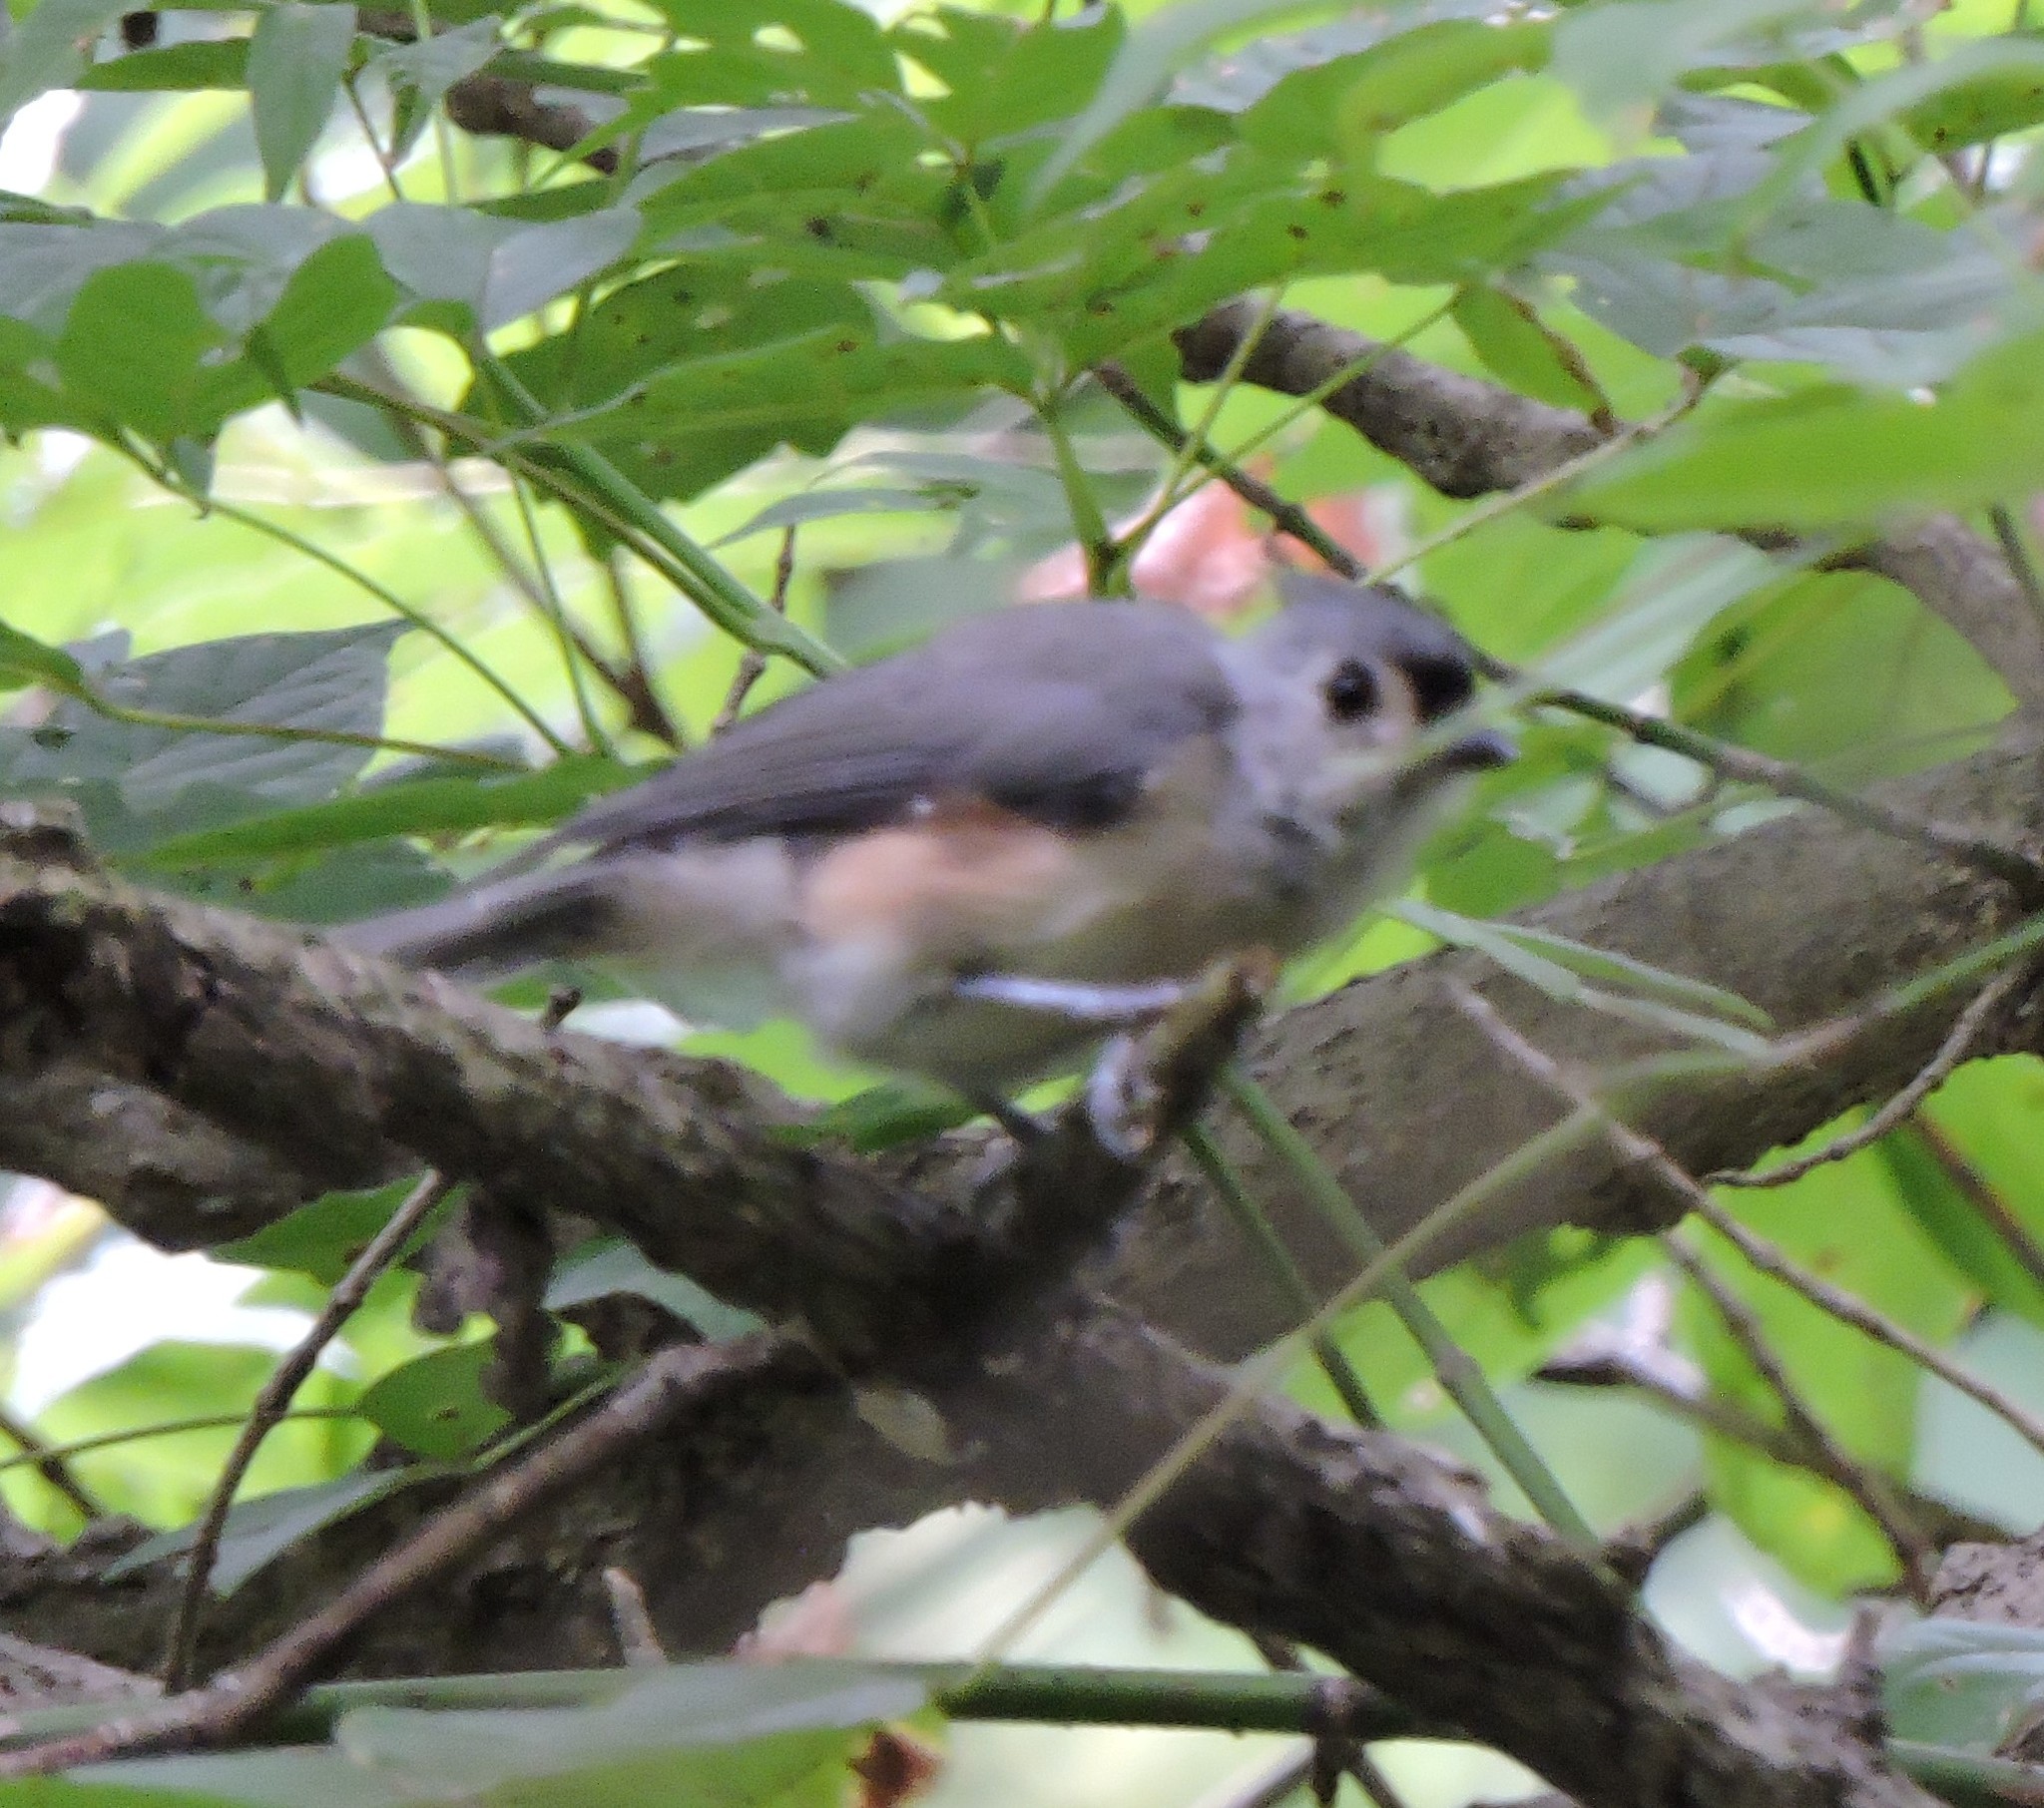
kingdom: Animalia
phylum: Chordata
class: Aves
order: Passeriformes
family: Paridae
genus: Baeolophus
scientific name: Baeolophus bicolor
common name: Tufted titmouse
